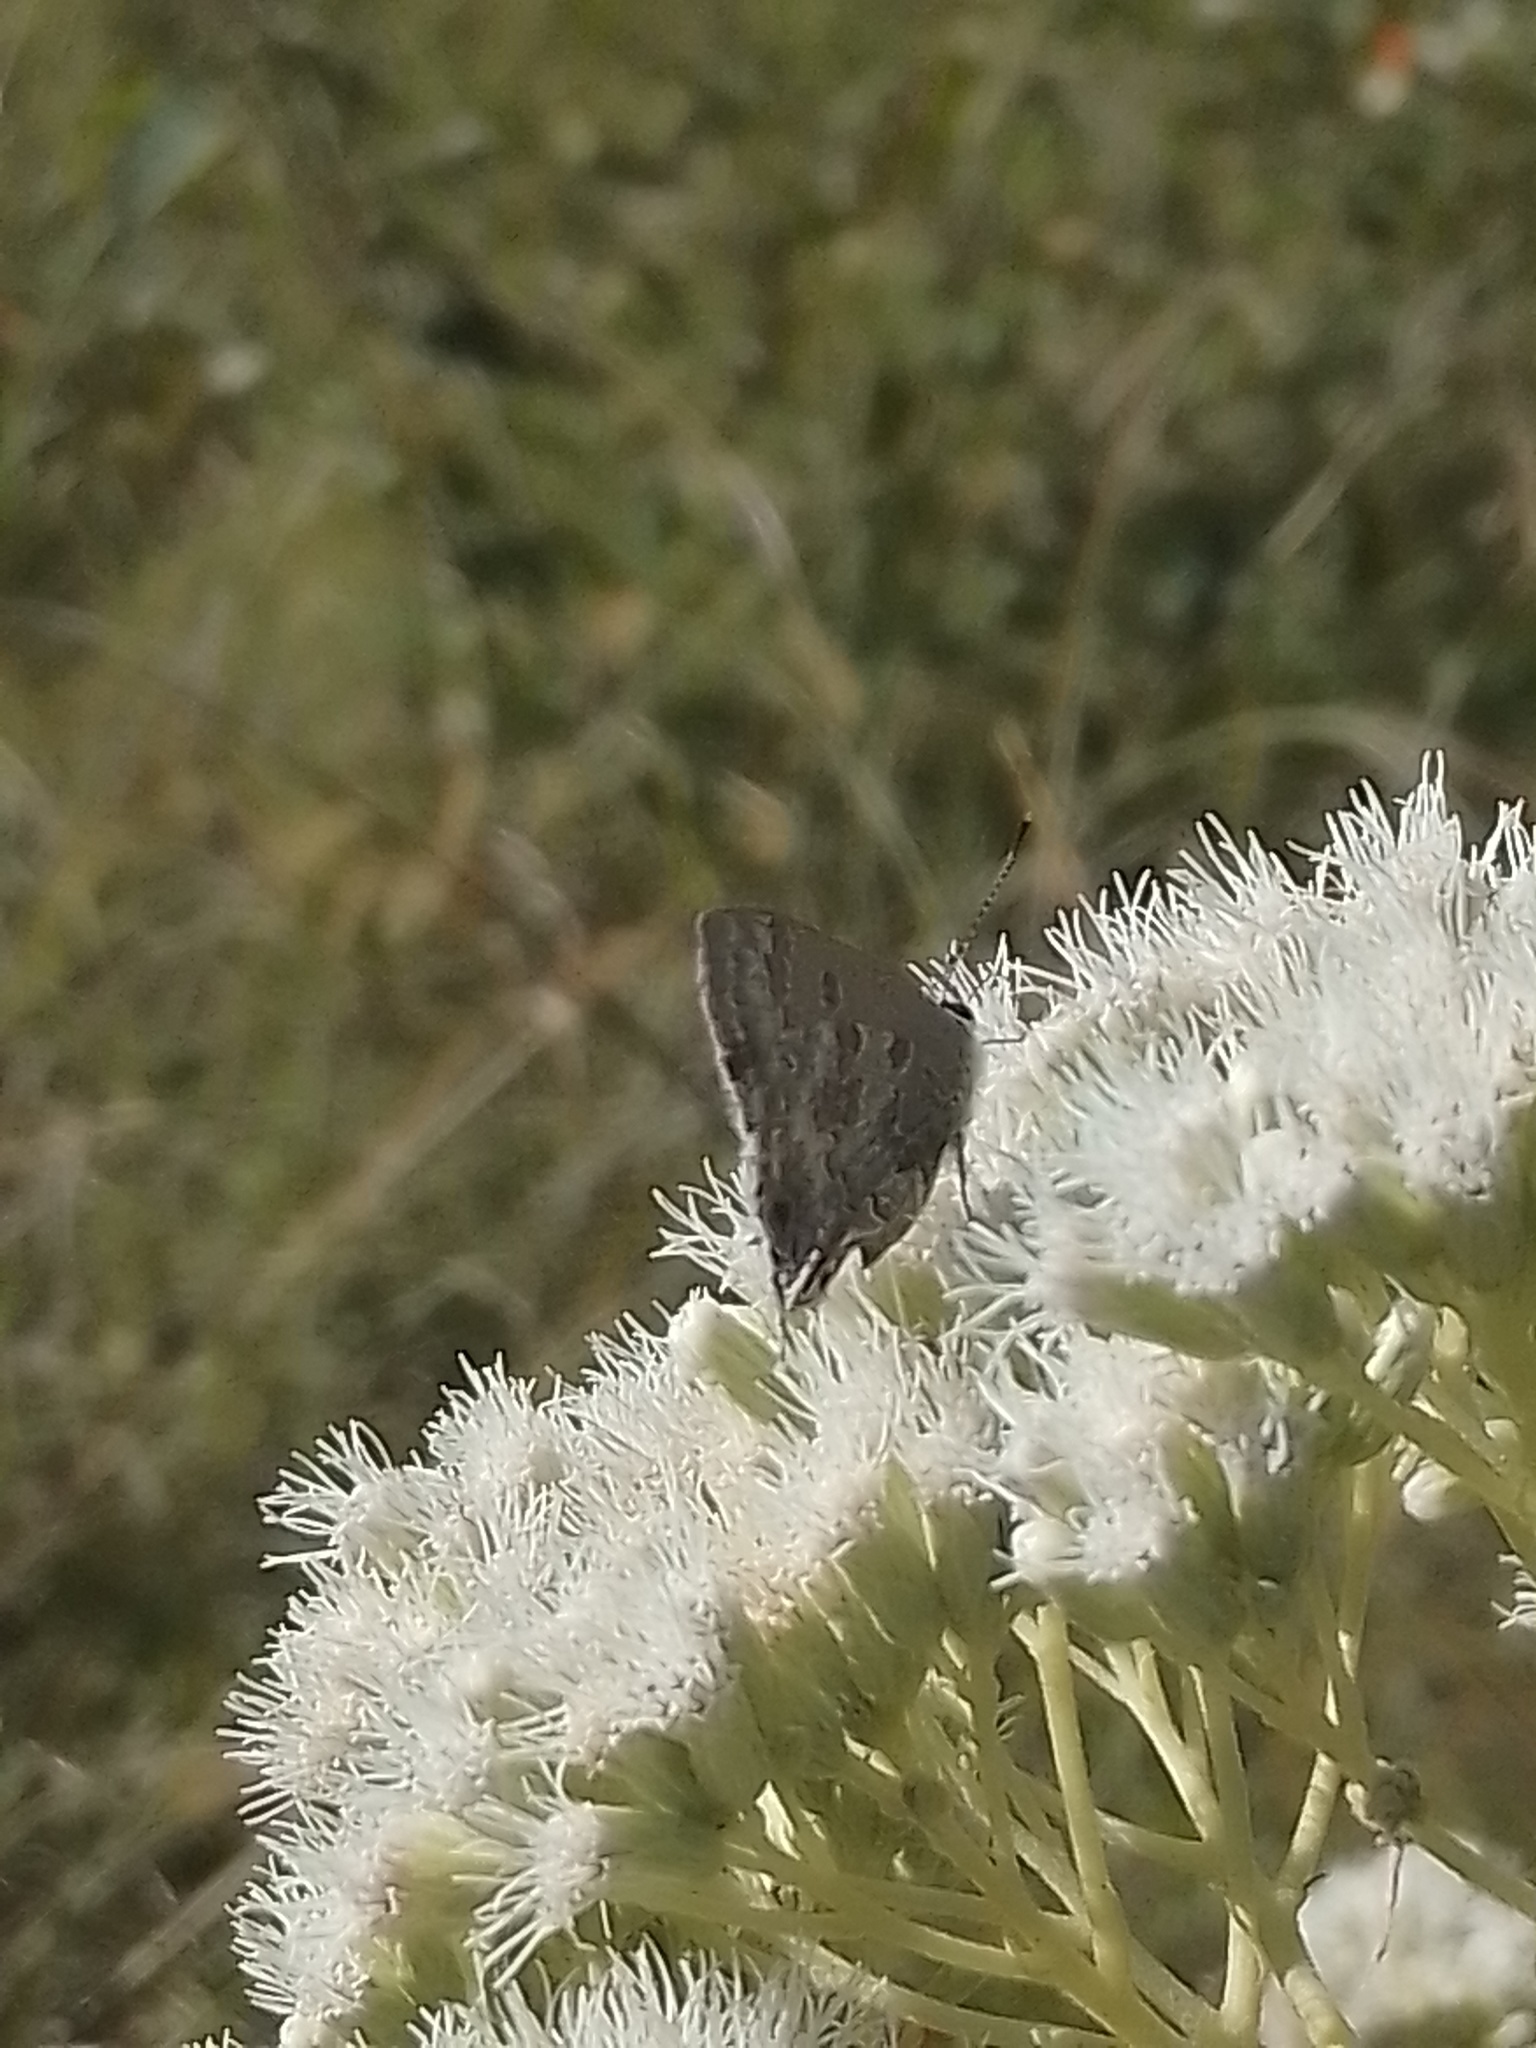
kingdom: Animalia
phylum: Arthropoda
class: Insecta
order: Lepidoptera
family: Lycaenidae
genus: Strymon
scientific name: Strymon lucena
